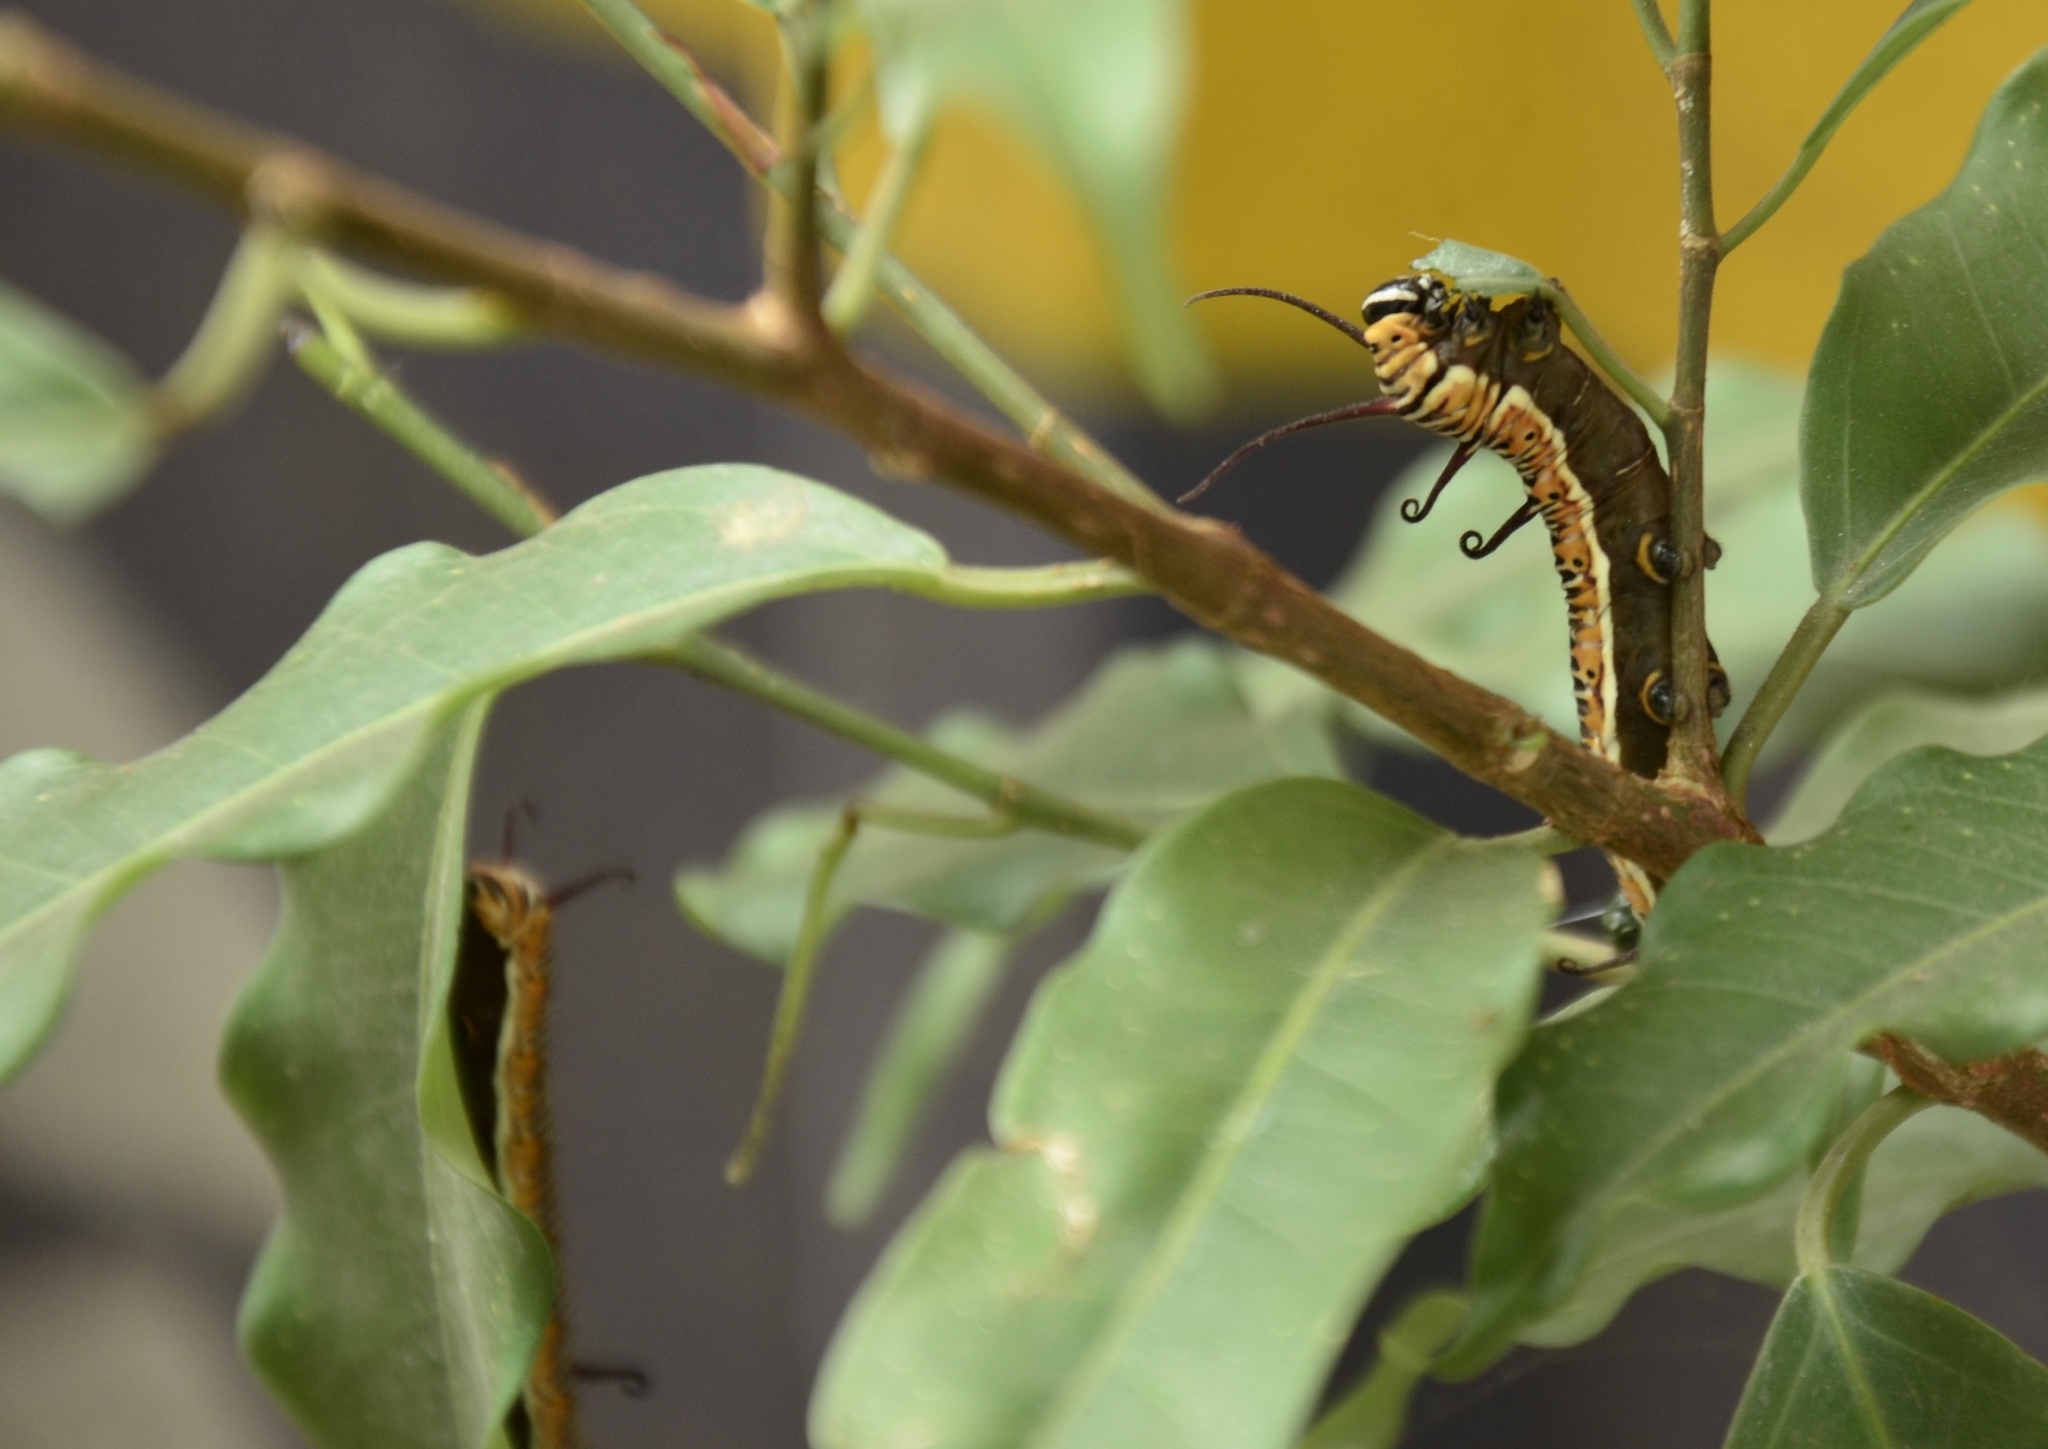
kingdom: Animalia
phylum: Arthropoda
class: Insecta
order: Lepidoptera
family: Nymphalidae
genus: Euploea
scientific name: Euploea core
